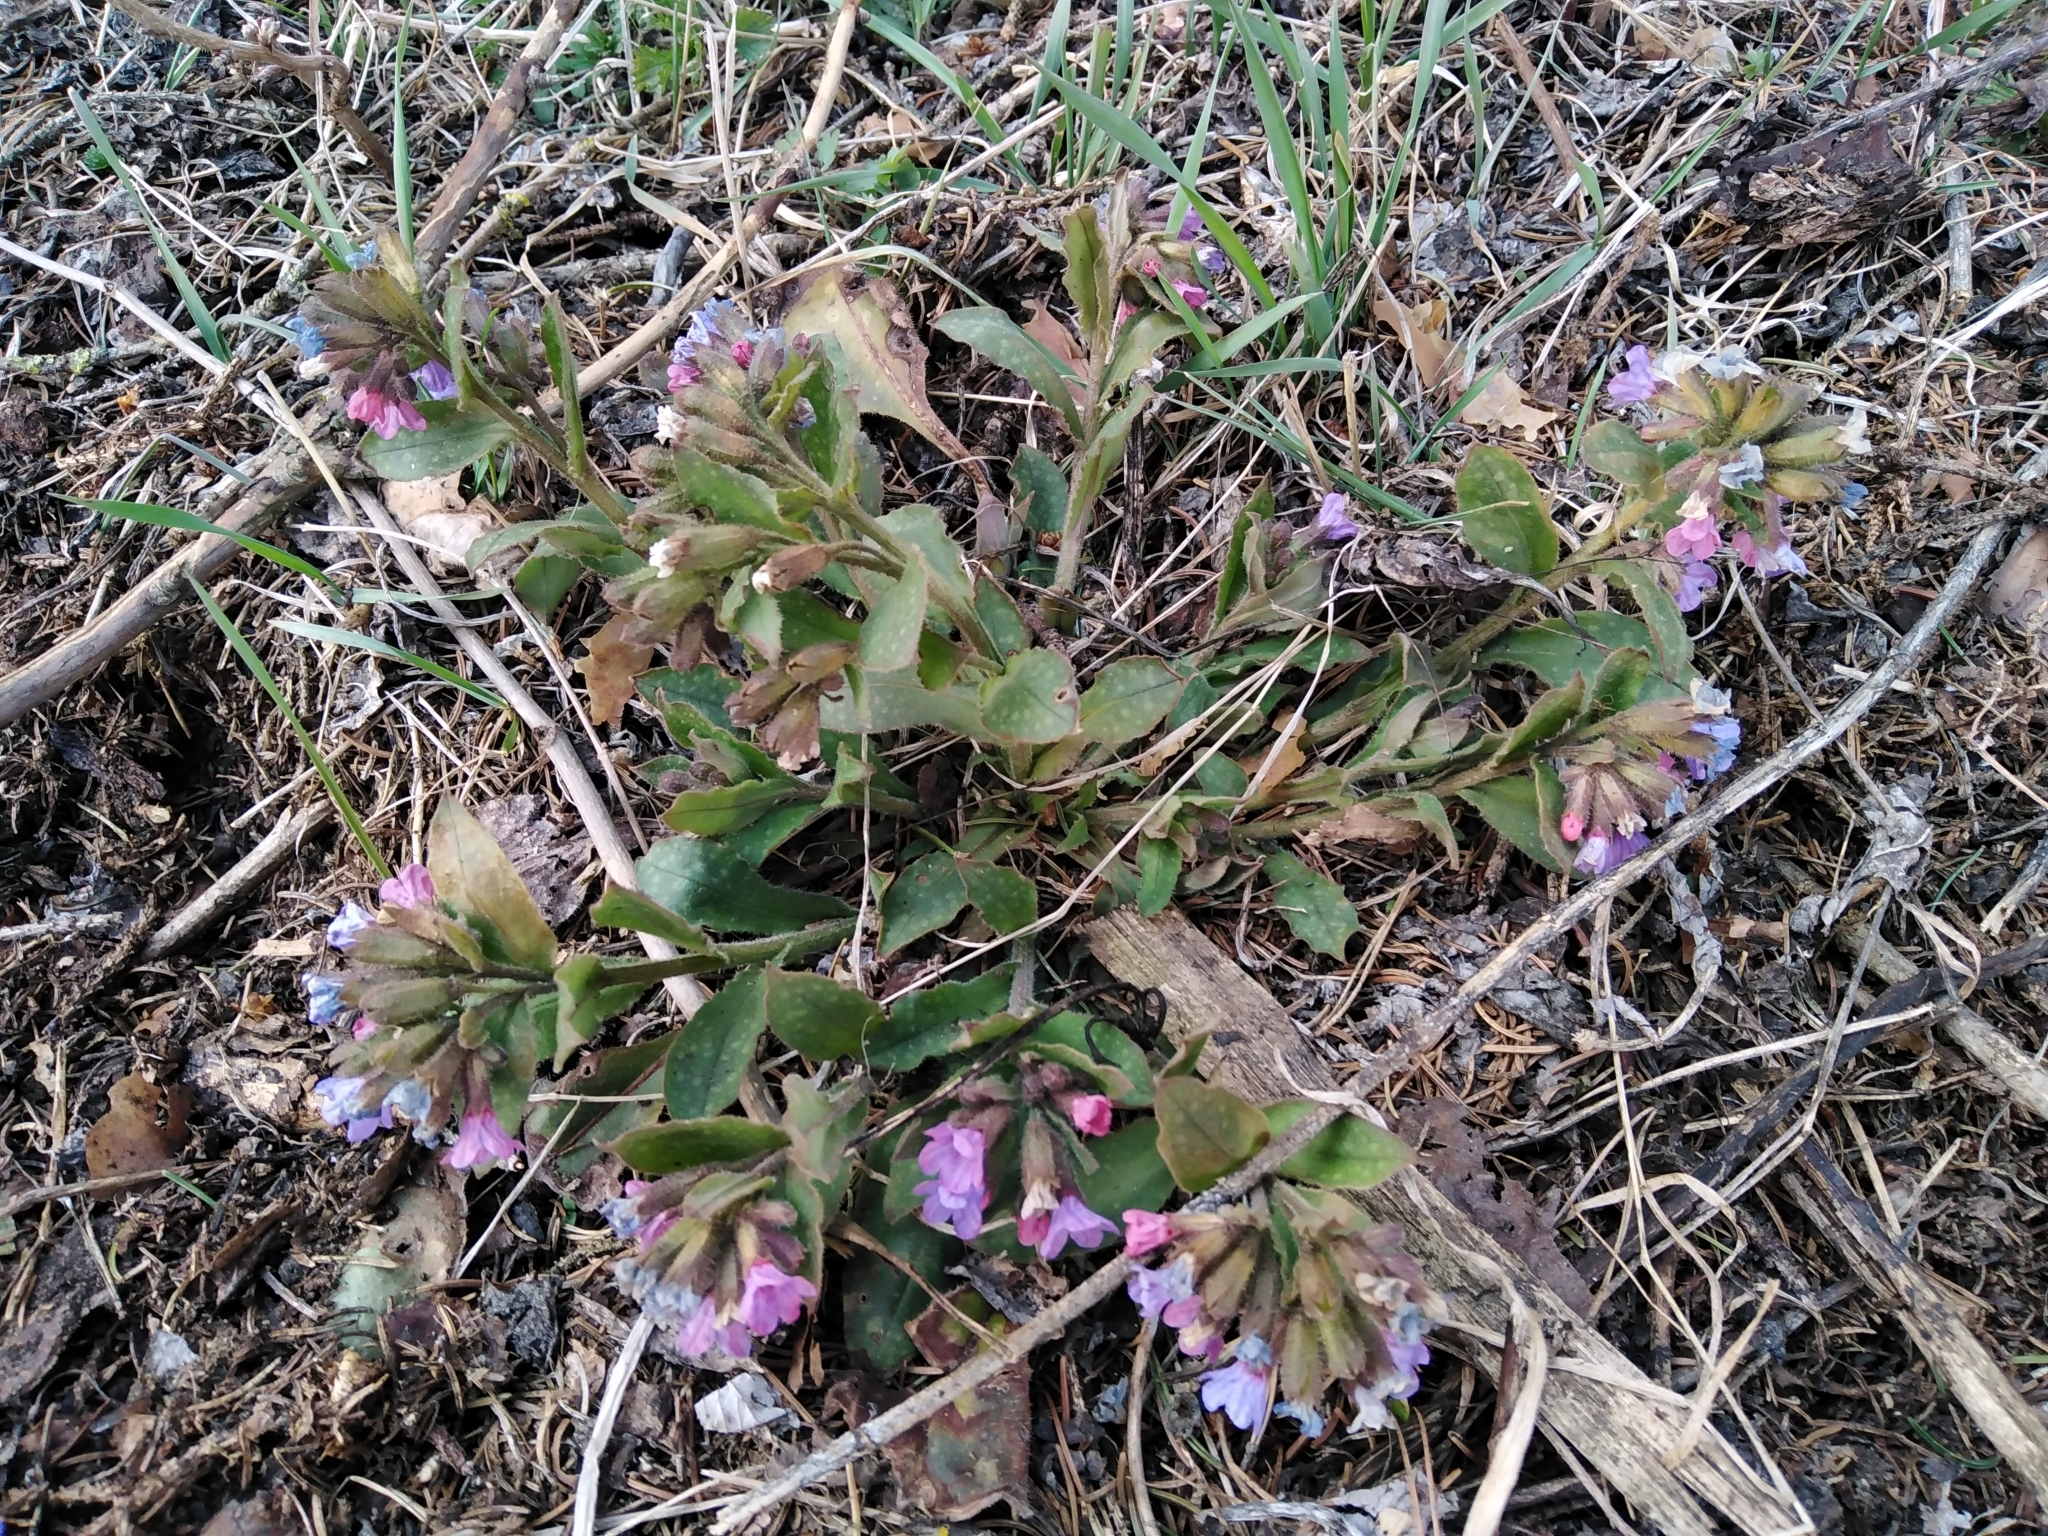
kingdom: Plantae
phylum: Tracheophyta
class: Magnoliopsida
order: Boraginales
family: Boraginaceae
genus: Pulmonaria
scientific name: Pulmonaria officinalis
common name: Lungwort
